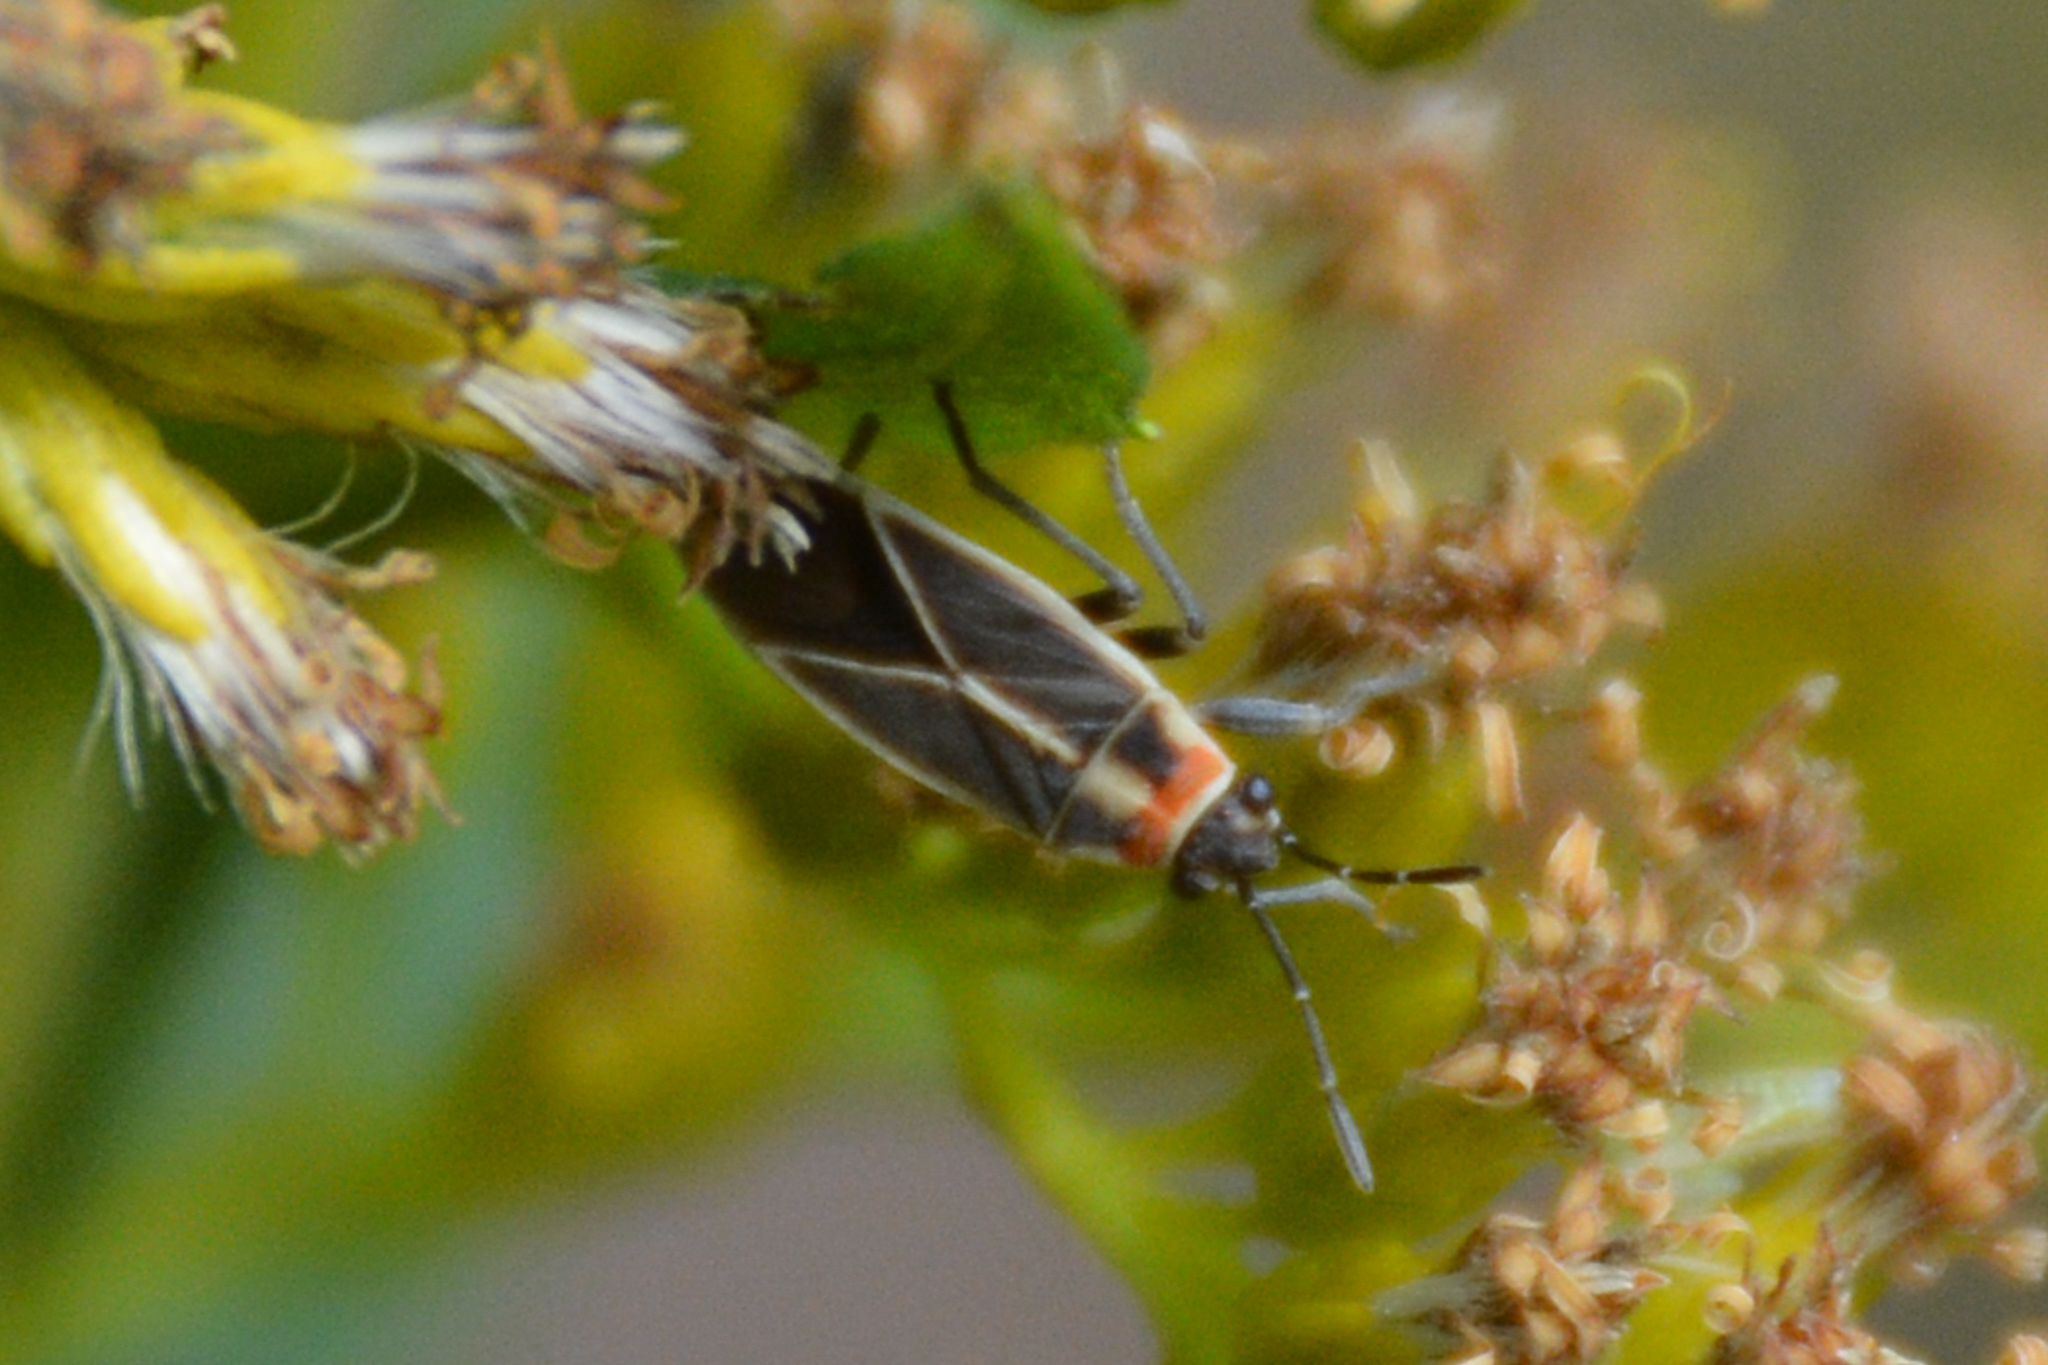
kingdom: Animalia
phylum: Arthropoda
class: Insecta
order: Hemiptera
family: Lygaeidae
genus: Ochrimnus
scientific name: Ochrimnus mimulus
